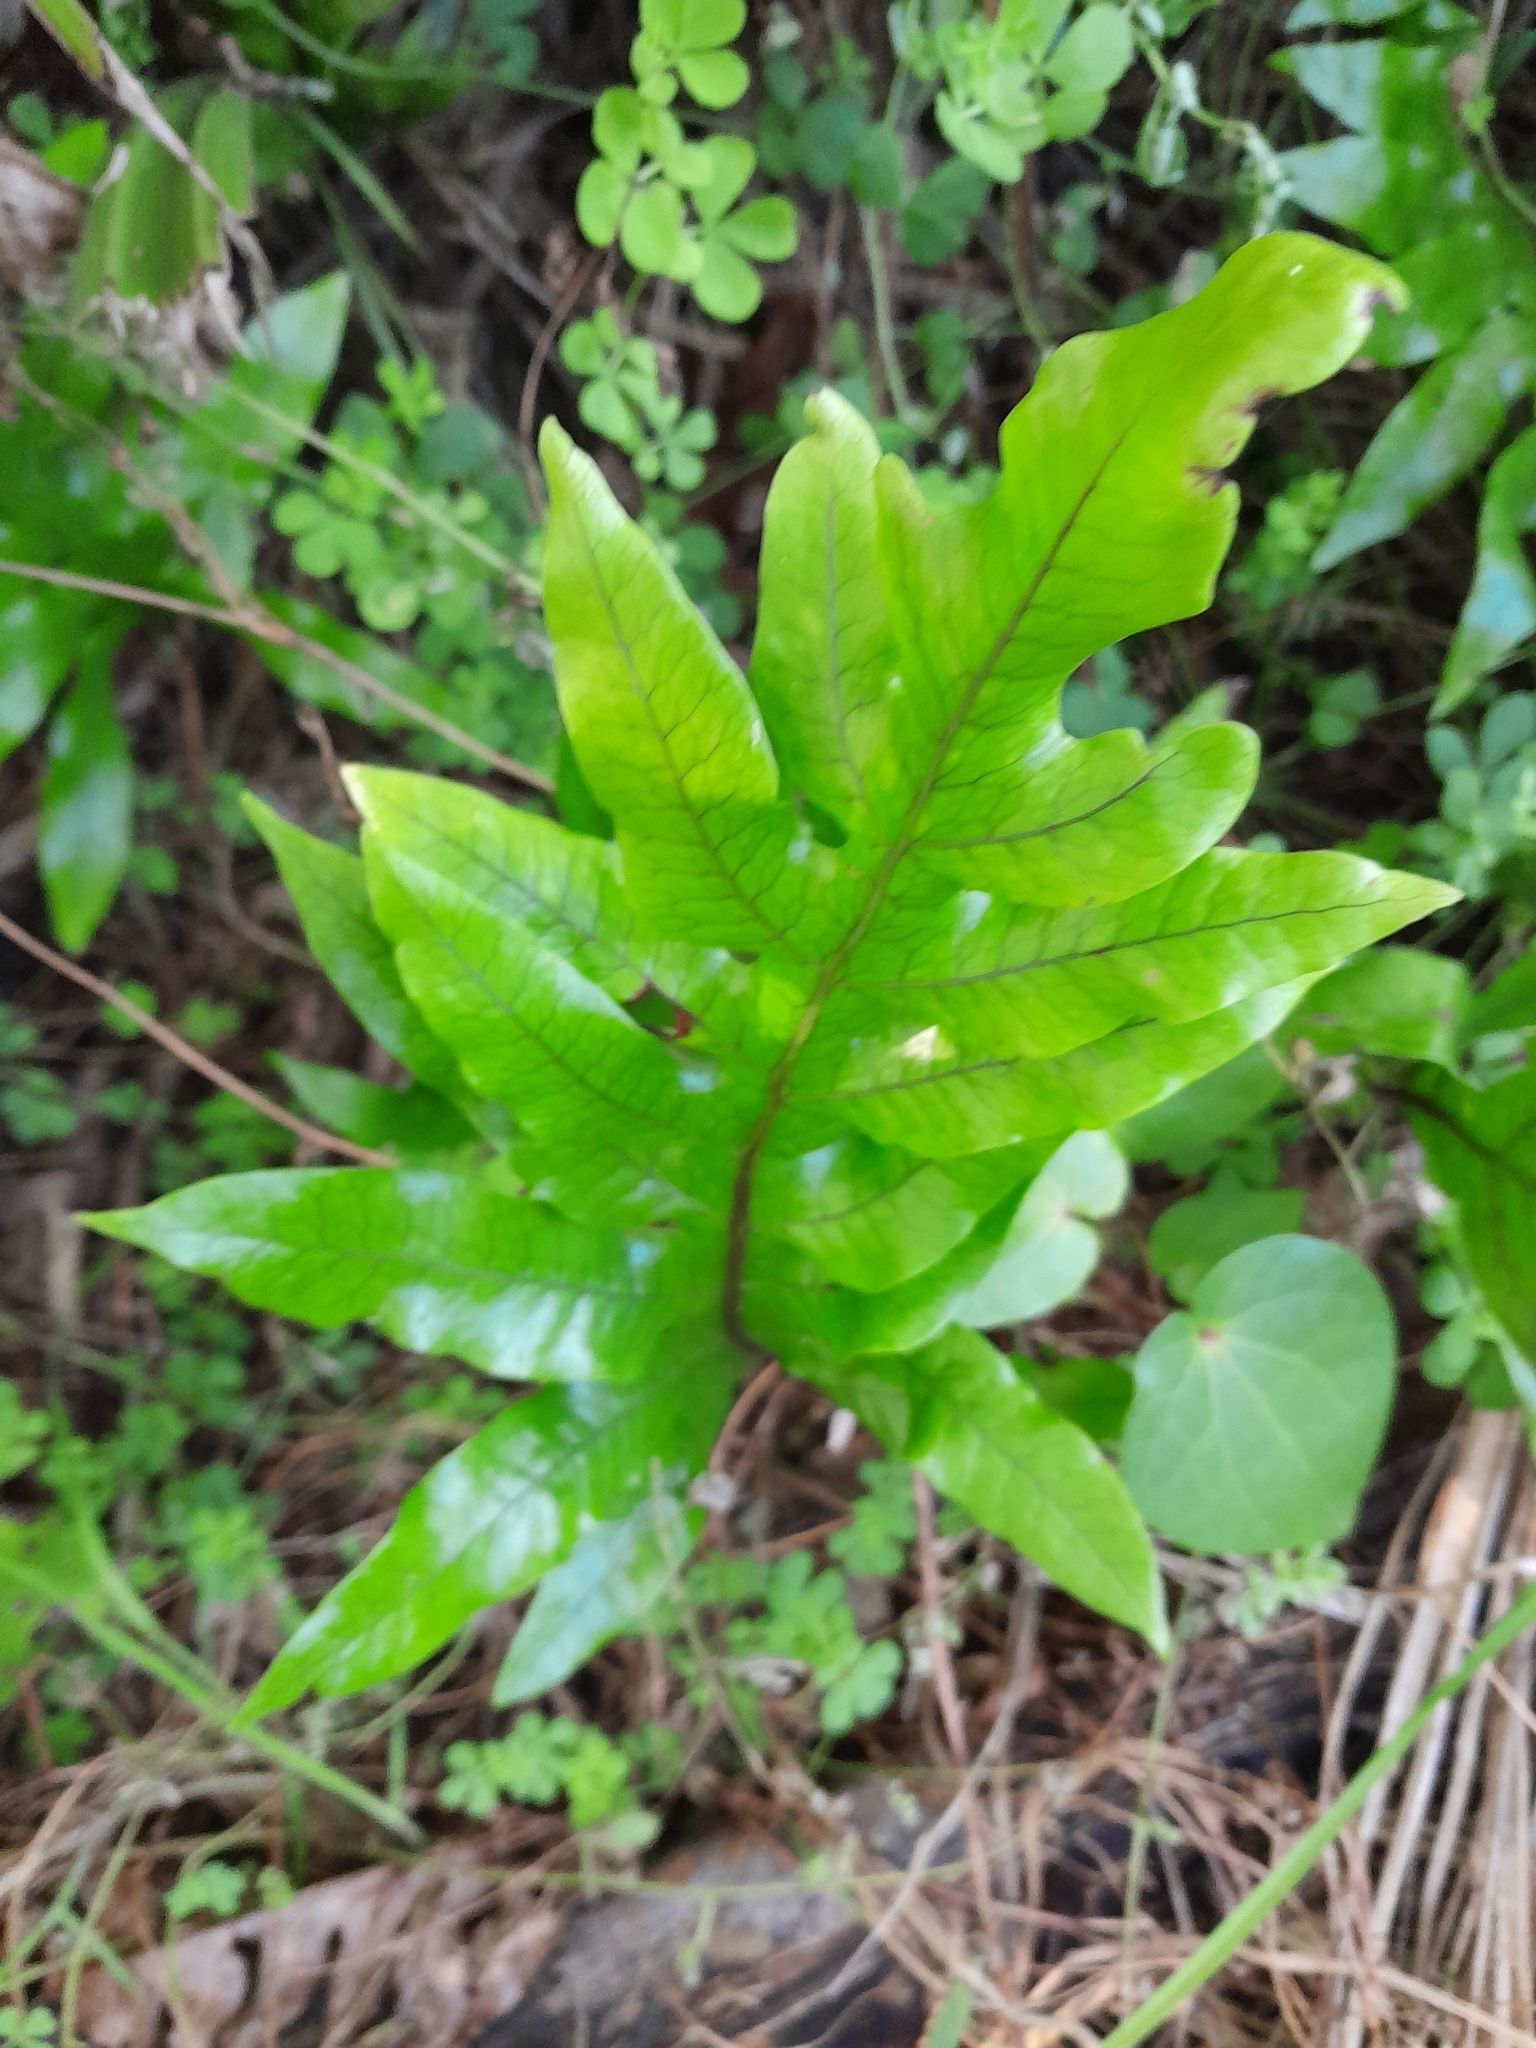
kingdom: Plantae
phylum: Tracheophyta
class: Polypodiopsida
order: Polypodiales
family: Polypodiaceae
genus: Lecanopteris
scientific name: Lecanopteris pustulata
